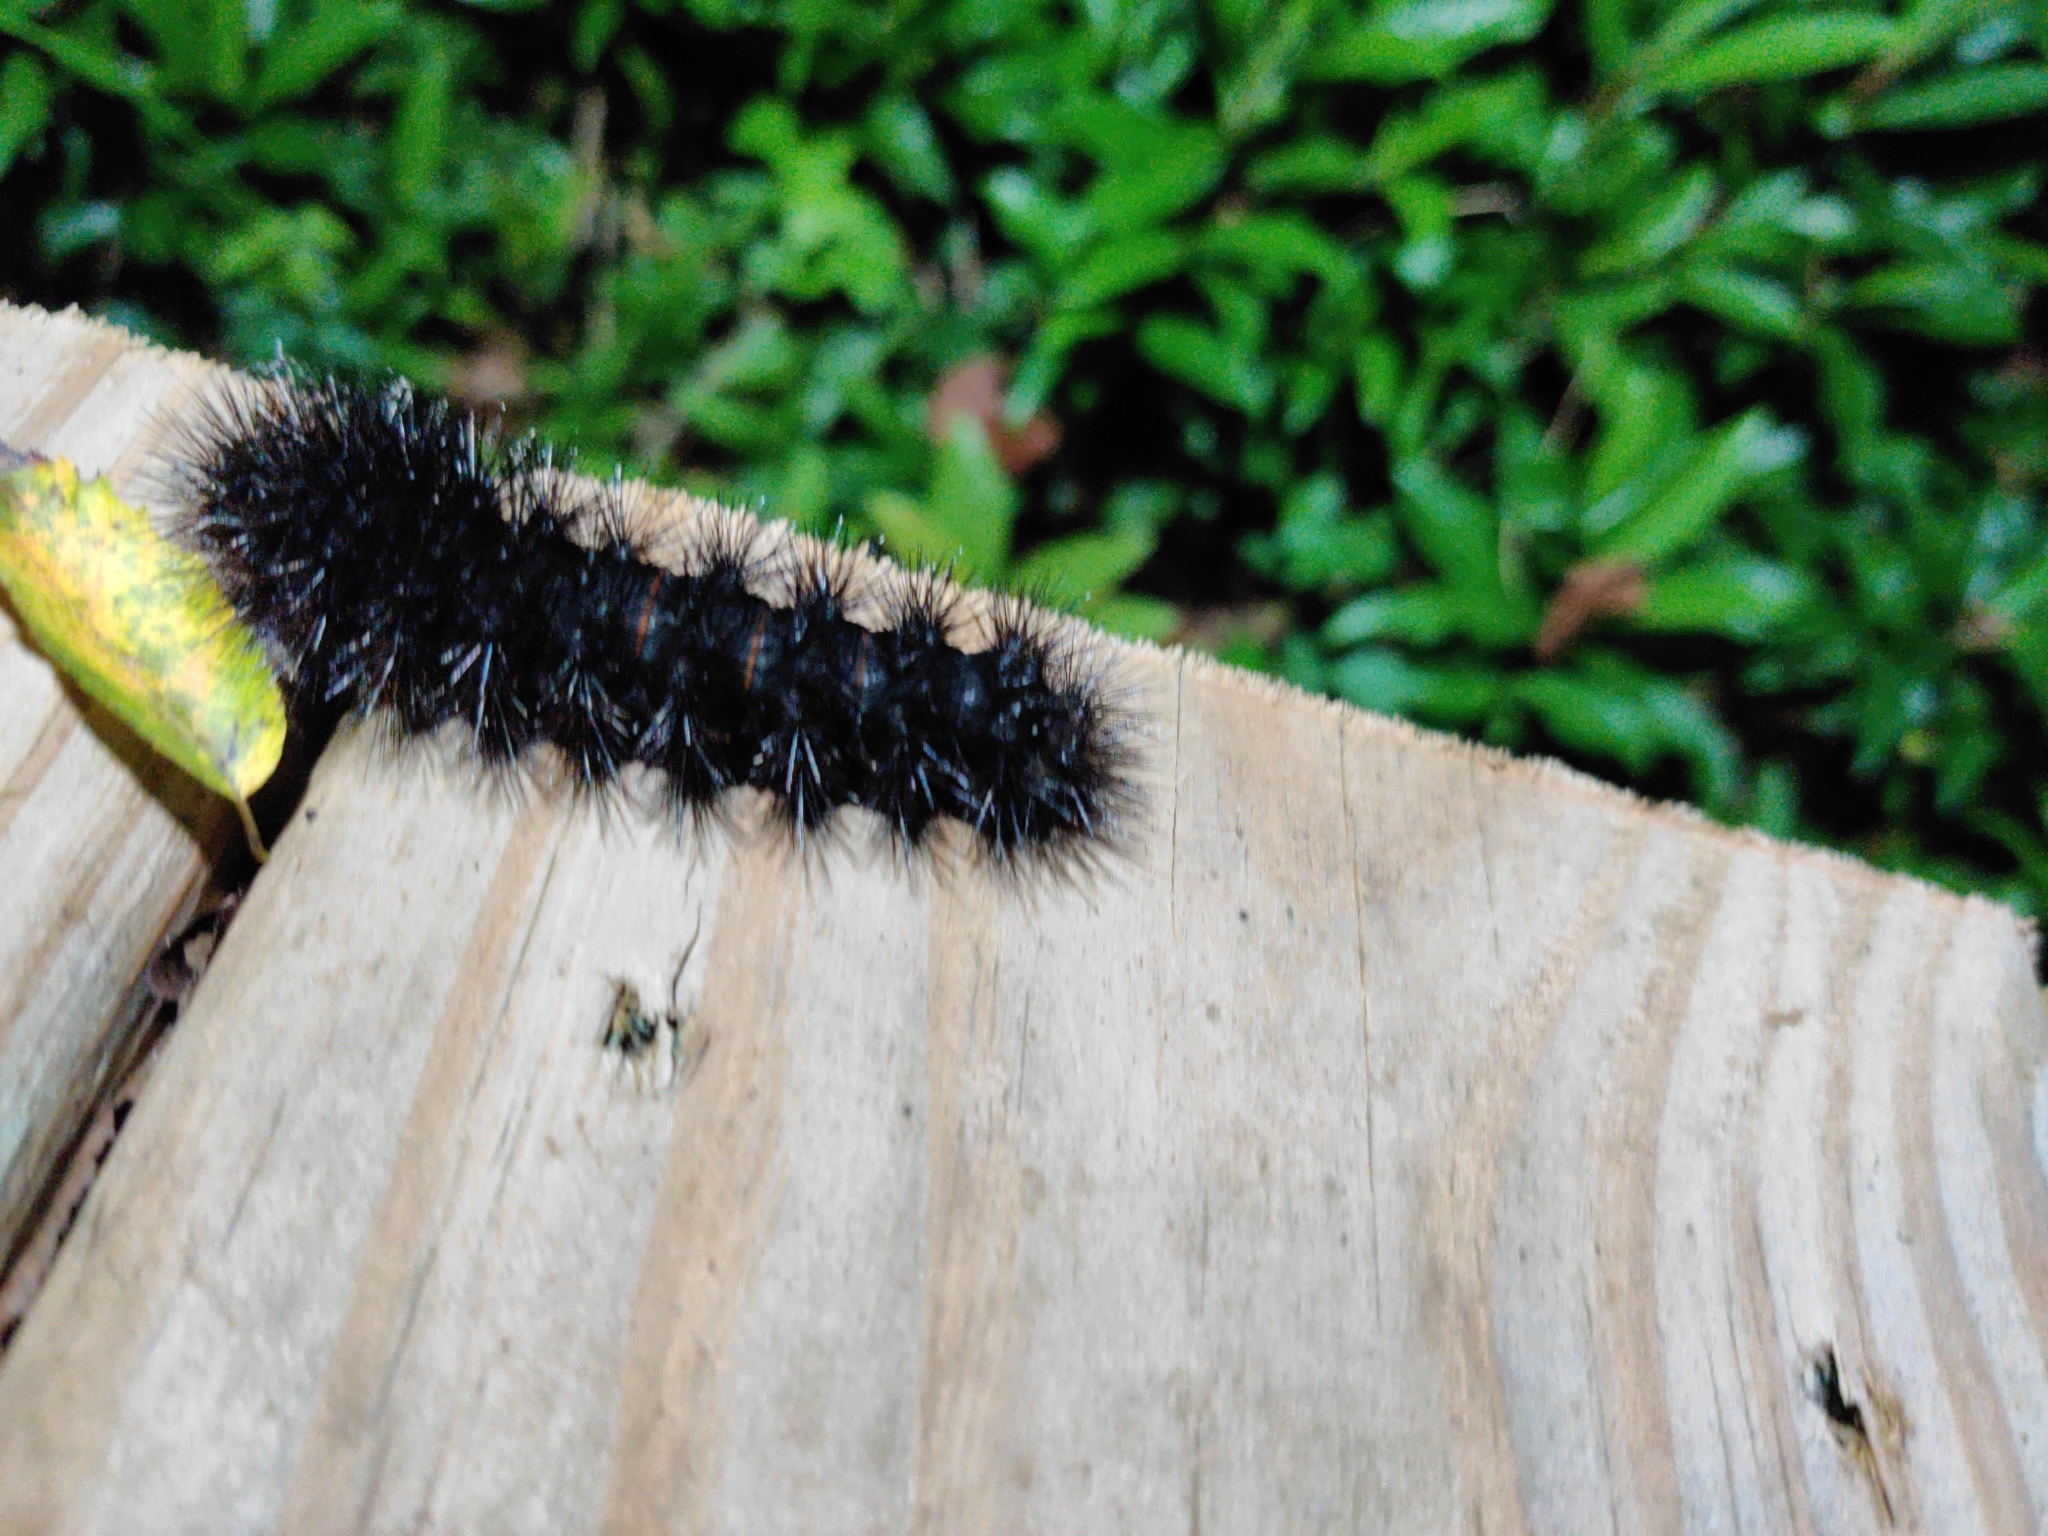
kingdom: Animalia
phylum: Arthropoda
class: Insecta
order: Lepidoptera
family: Erebidae
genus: Hypercompe
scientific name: Hypercompe scribonia
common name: Giant leopard moth
